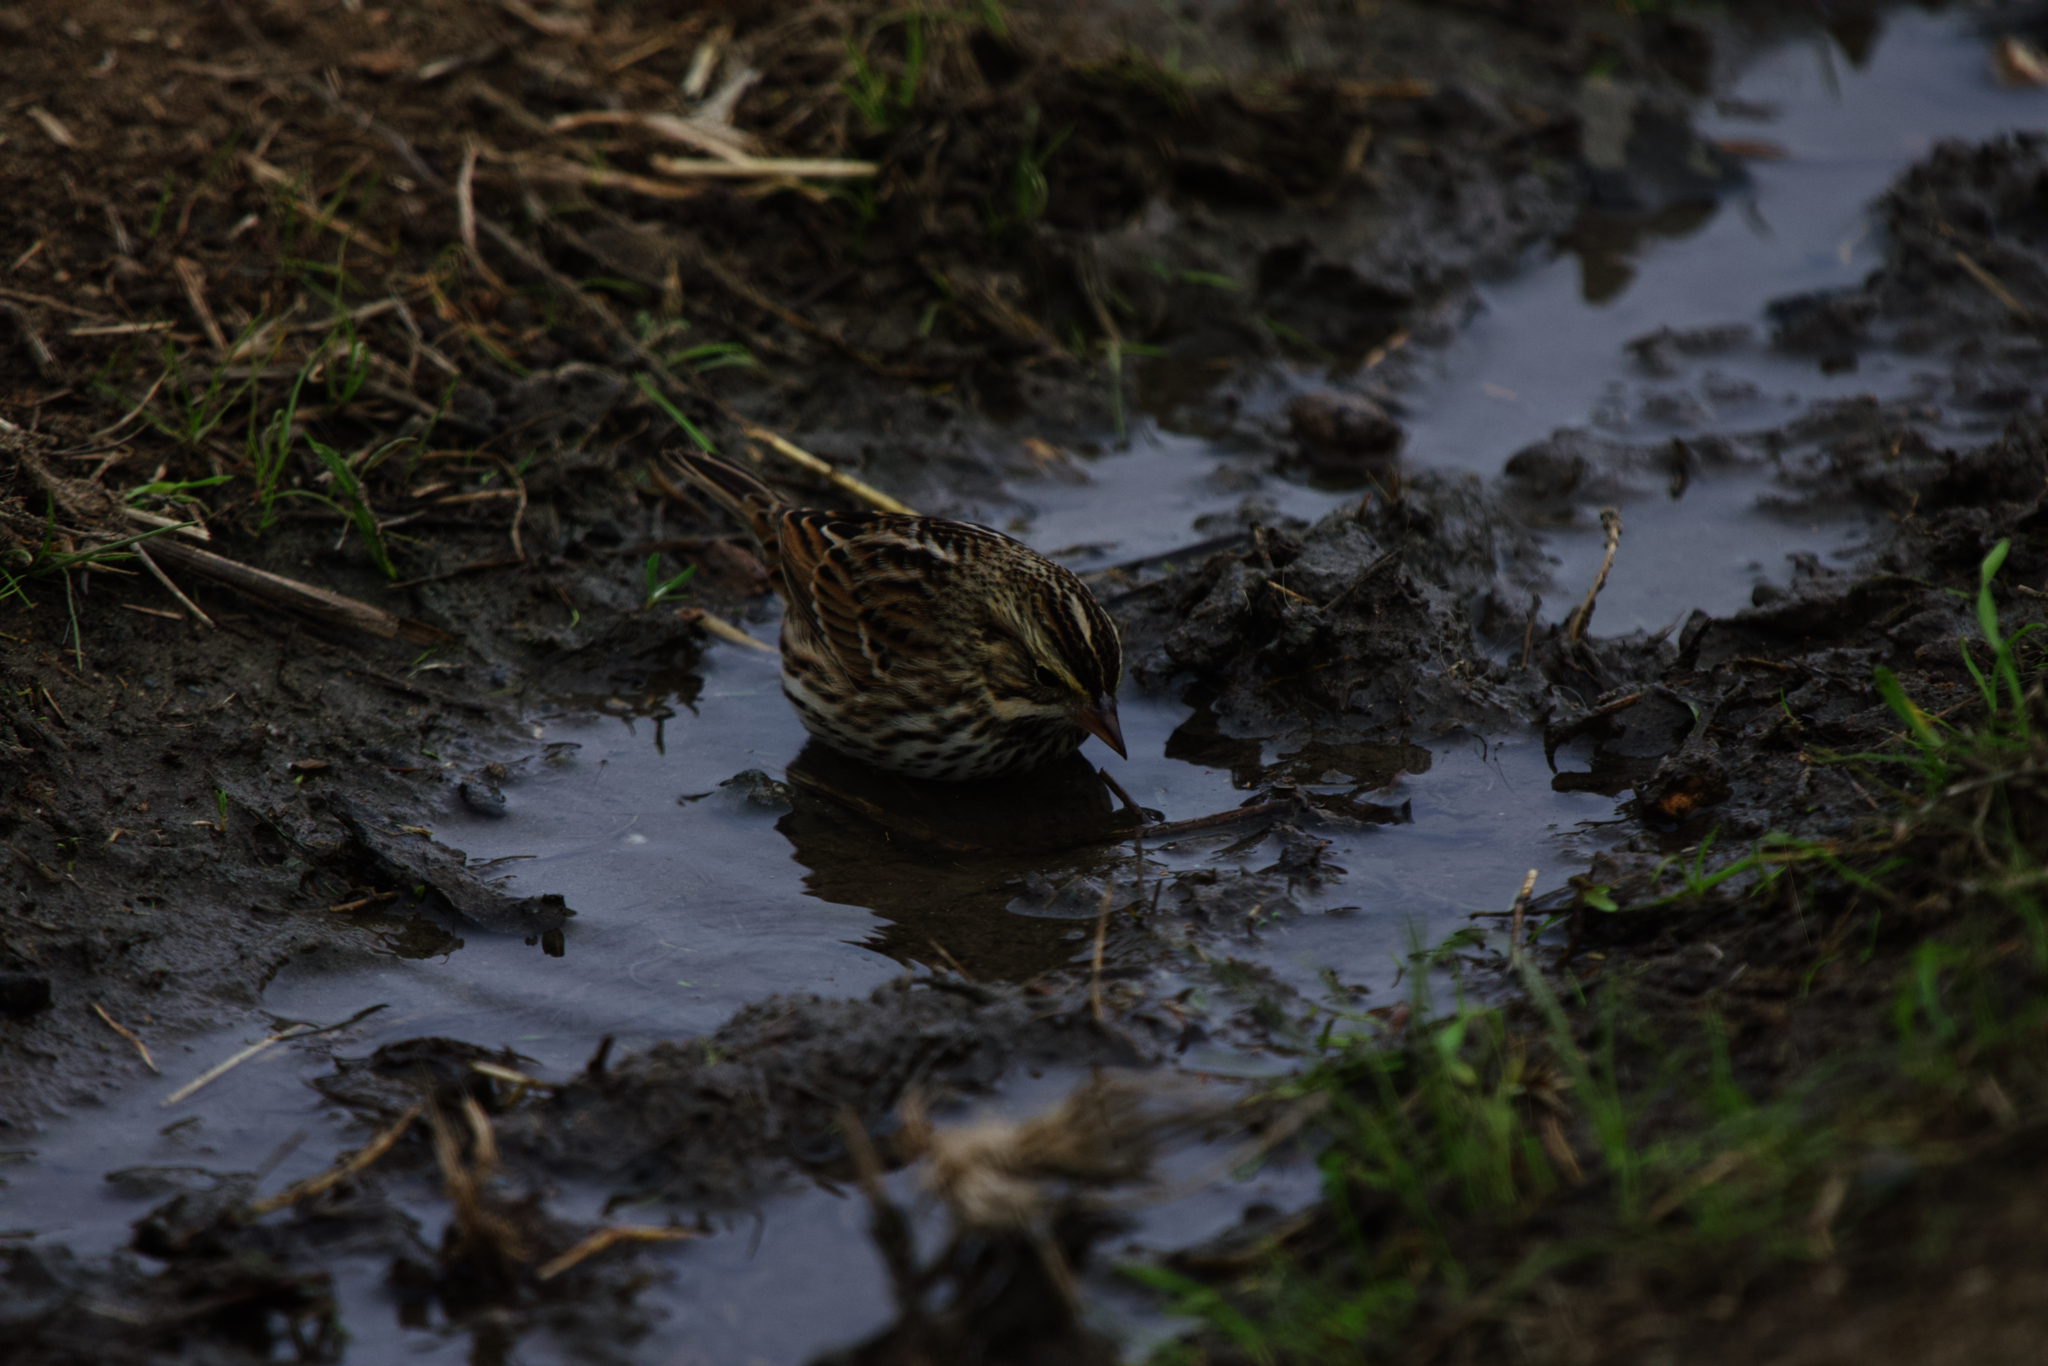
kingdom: Animalia
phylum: Chordata
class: Aves
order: Passeriformes
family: Passerellidae
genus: Passerculus
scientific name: Passerculus sandwichensis
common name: Savannah sparrow
